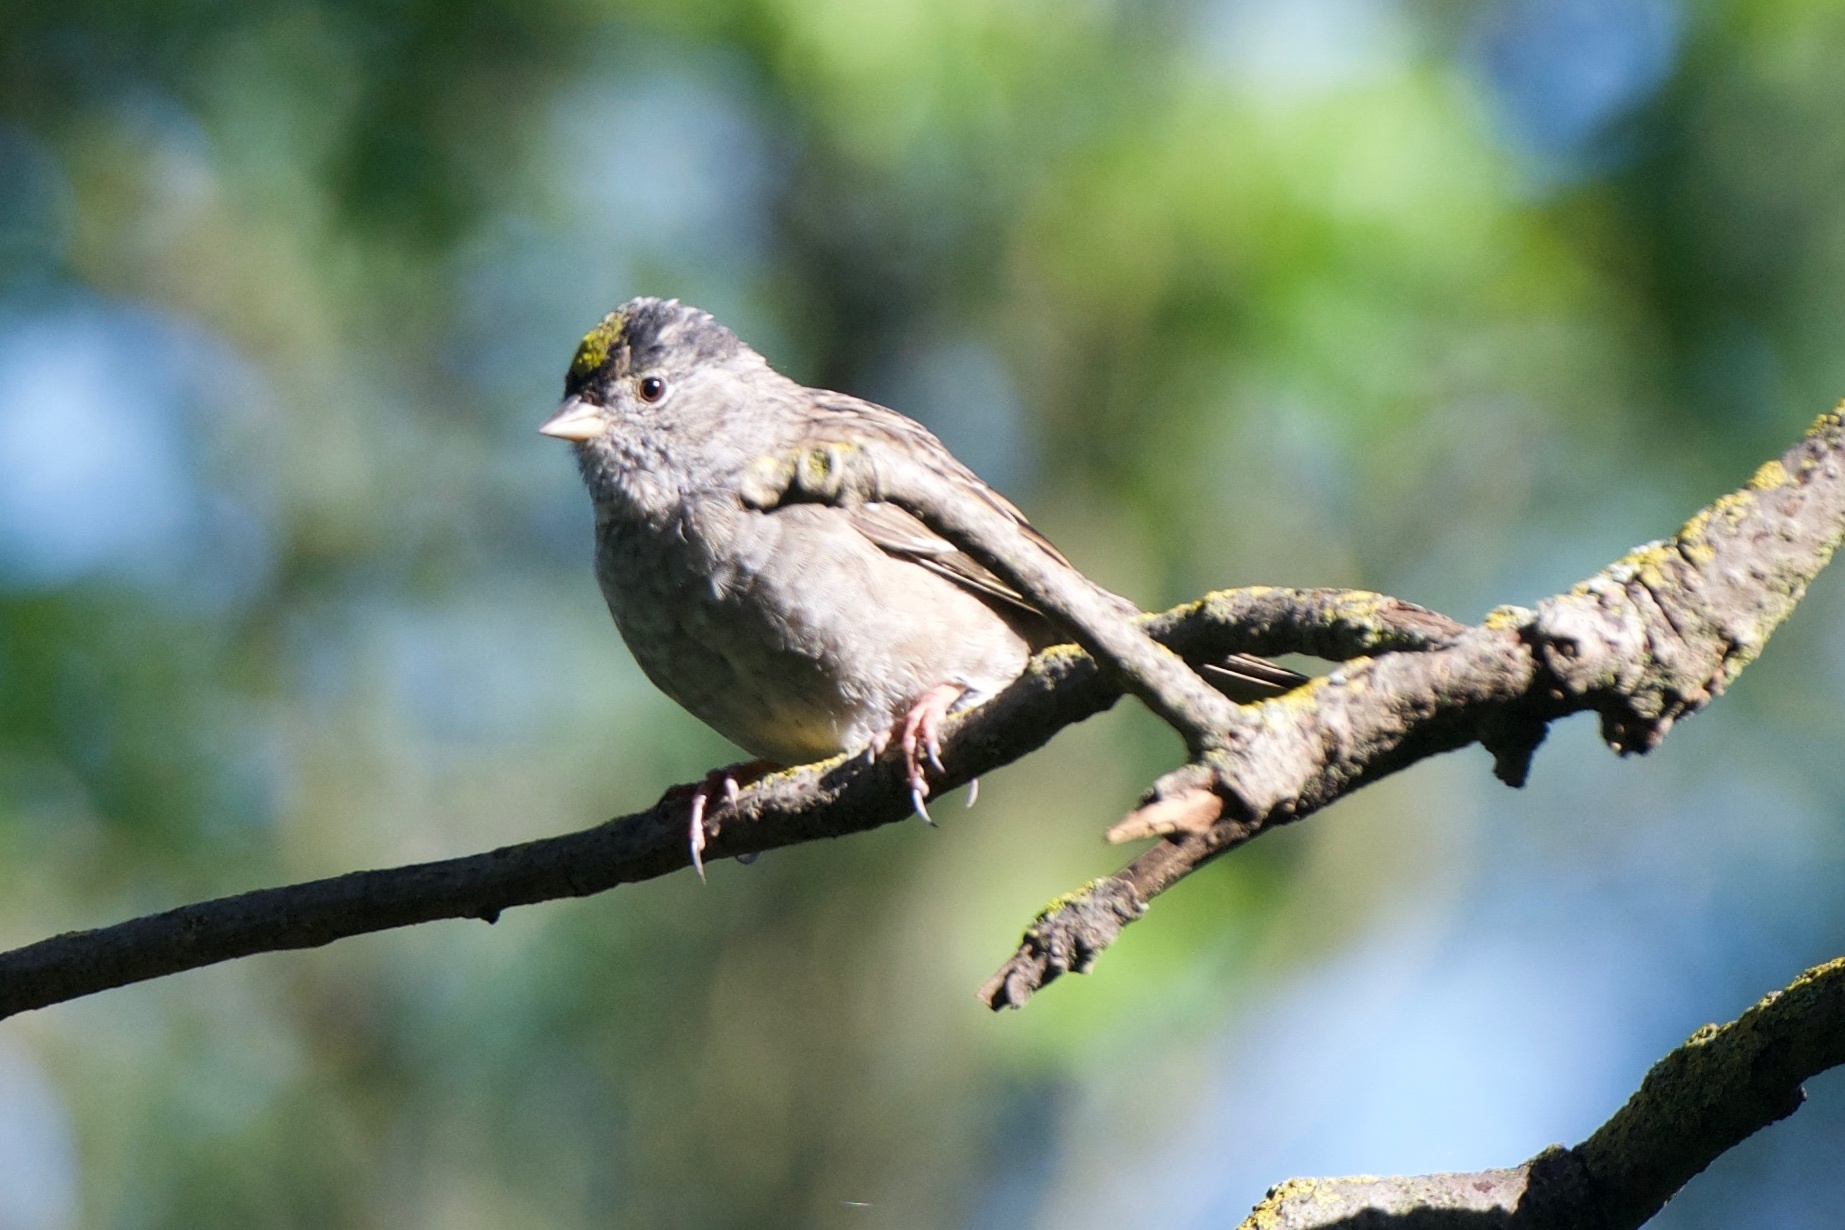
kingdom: Animalia
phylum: Chordata
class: Aves
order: Passeriformes
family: Passerellidae
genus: Zonotrichia
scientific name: Zonotrichia atricapilla
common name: Golden-crowned sparrow
